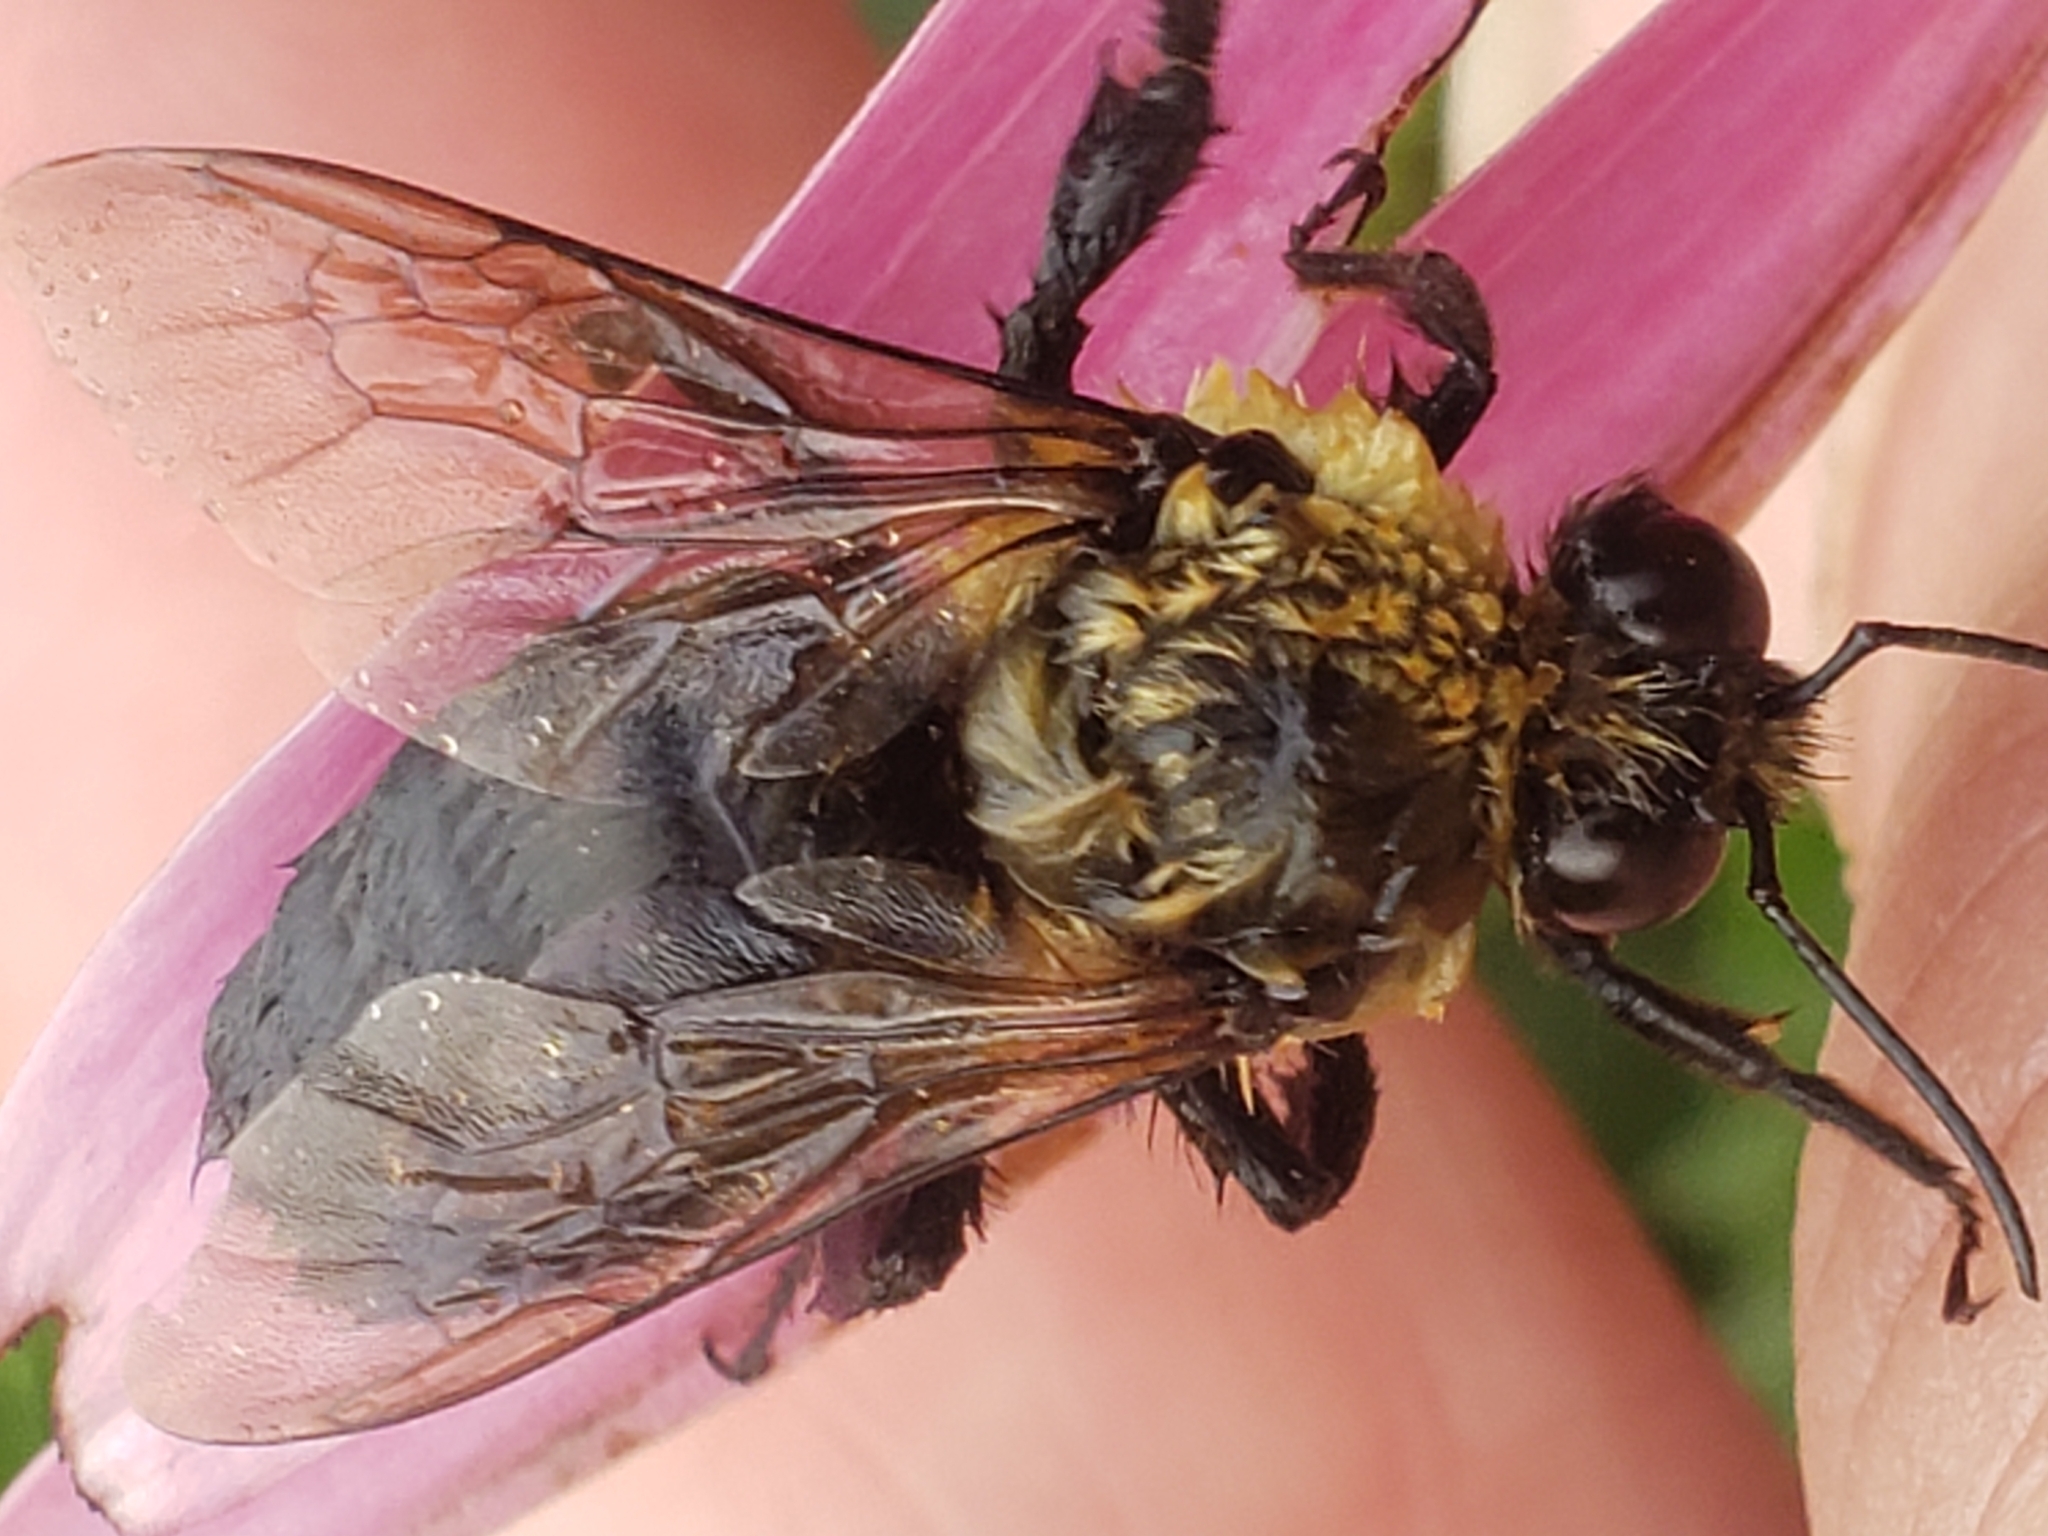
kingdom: Animalia
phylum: Arthropoda
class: Insecta
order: Hymenoptera
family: Apidae
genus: Bombus
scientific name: Bombus griseocollis
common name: Brown-belted bumble bee
